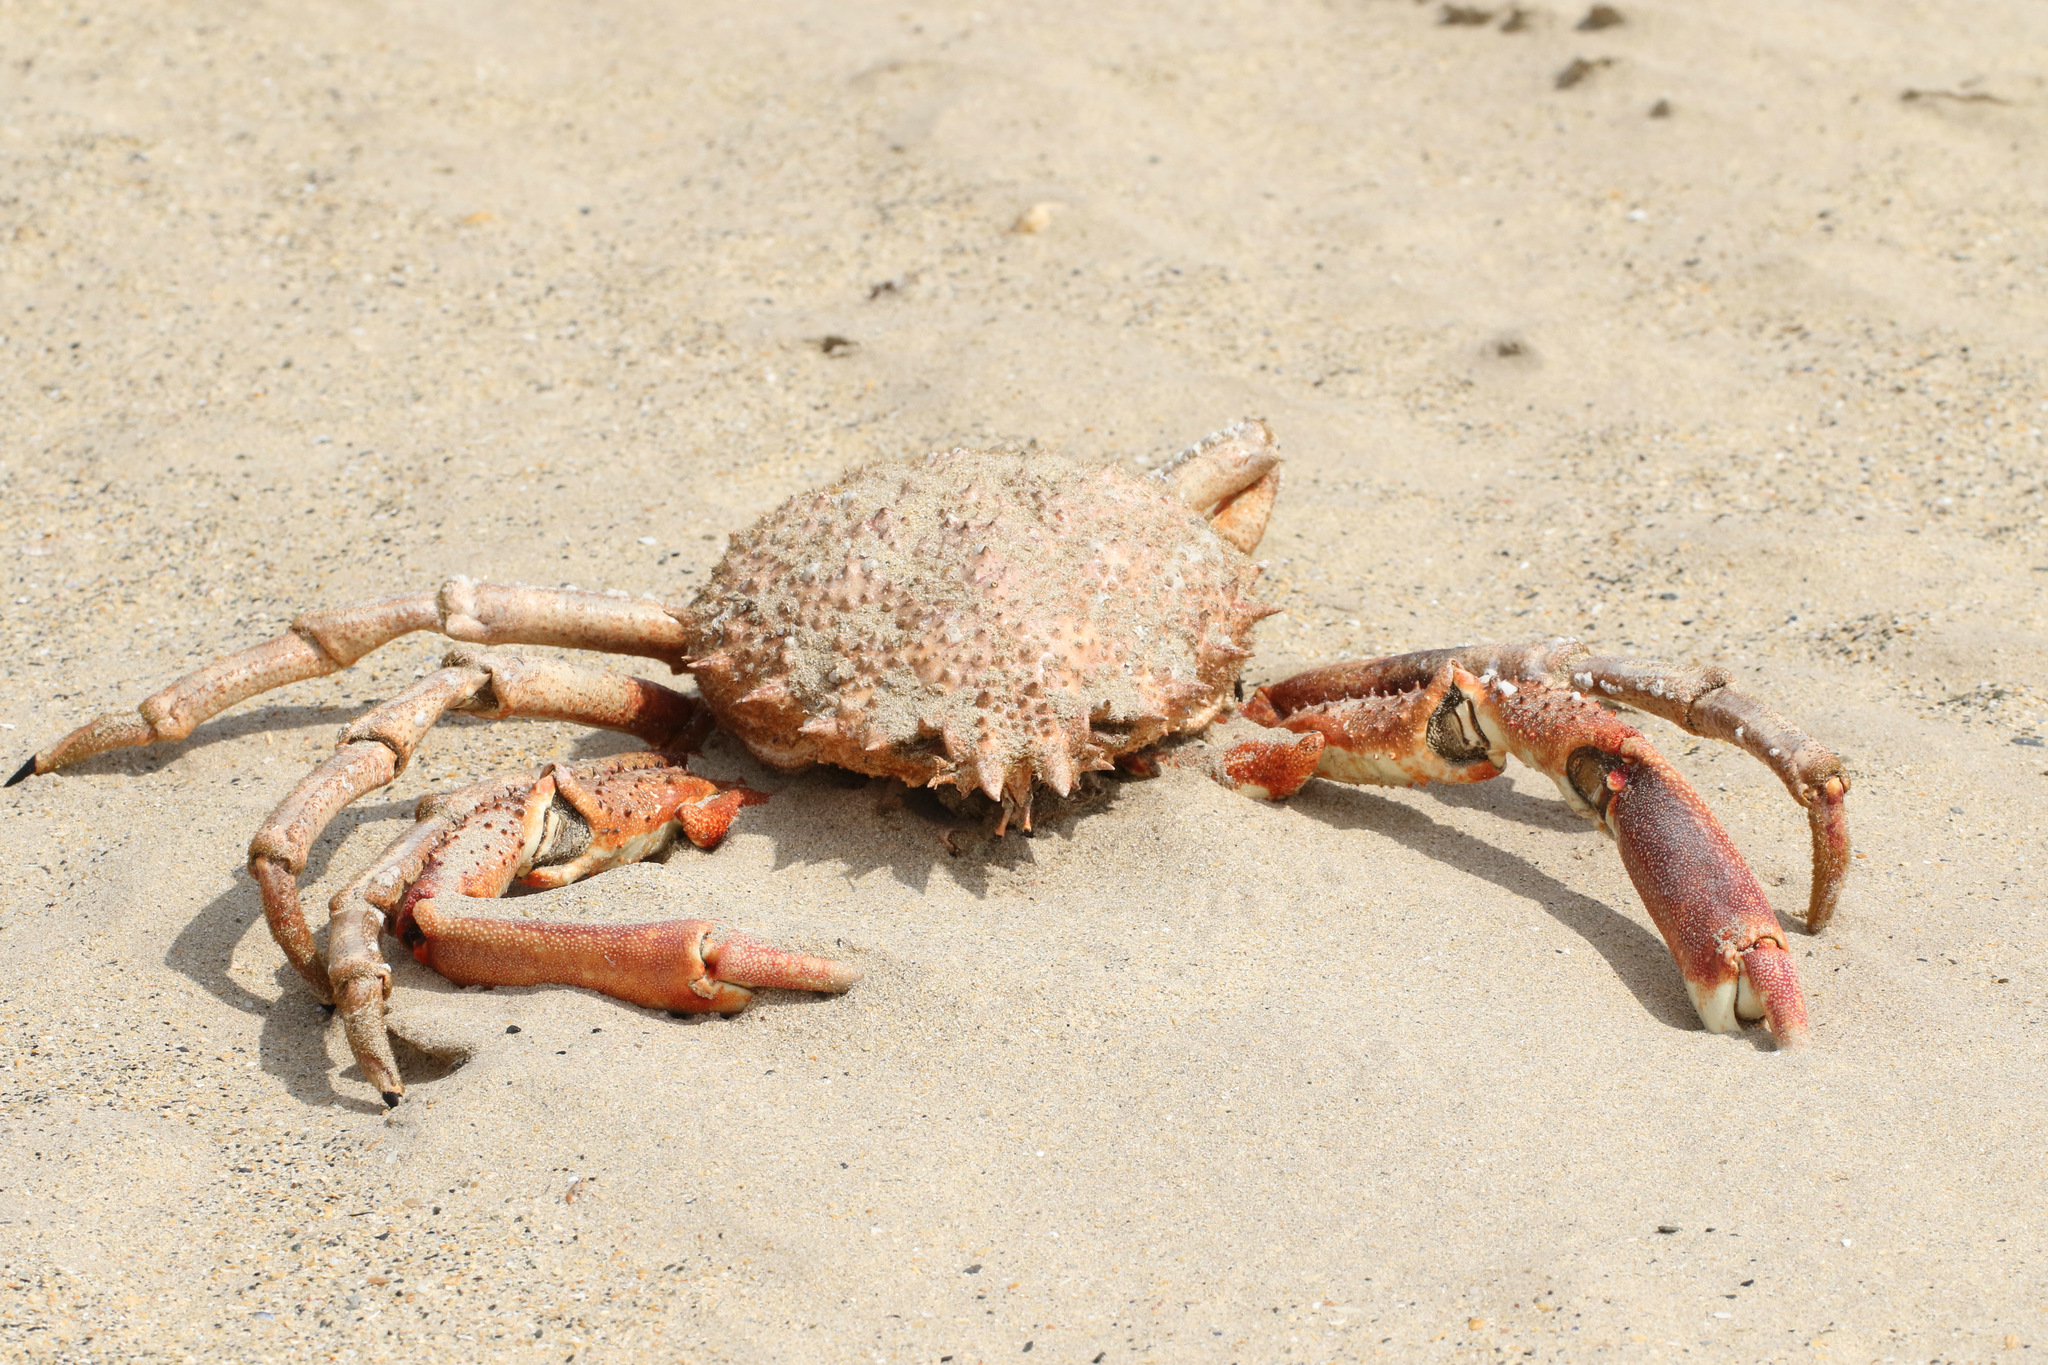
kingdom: Animalia
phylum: Arthropoda
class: Malacostraca
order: Decapoda
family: Majidae
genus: Maja
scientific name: Maja brachydactyla
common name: Common spider crab
